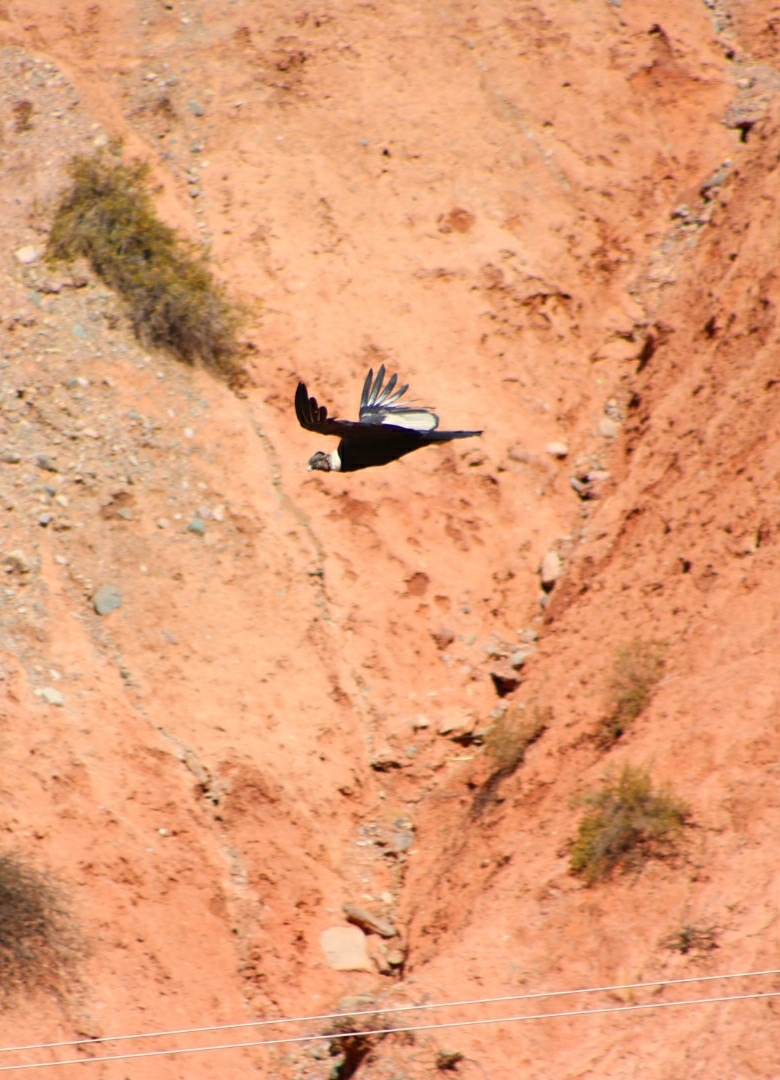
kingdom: Animalia
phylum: Chordata
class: Aves
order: Accipitriformes
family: Cathartidae
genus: Vultur
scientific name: Vultur gryphus
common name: Andean condor
